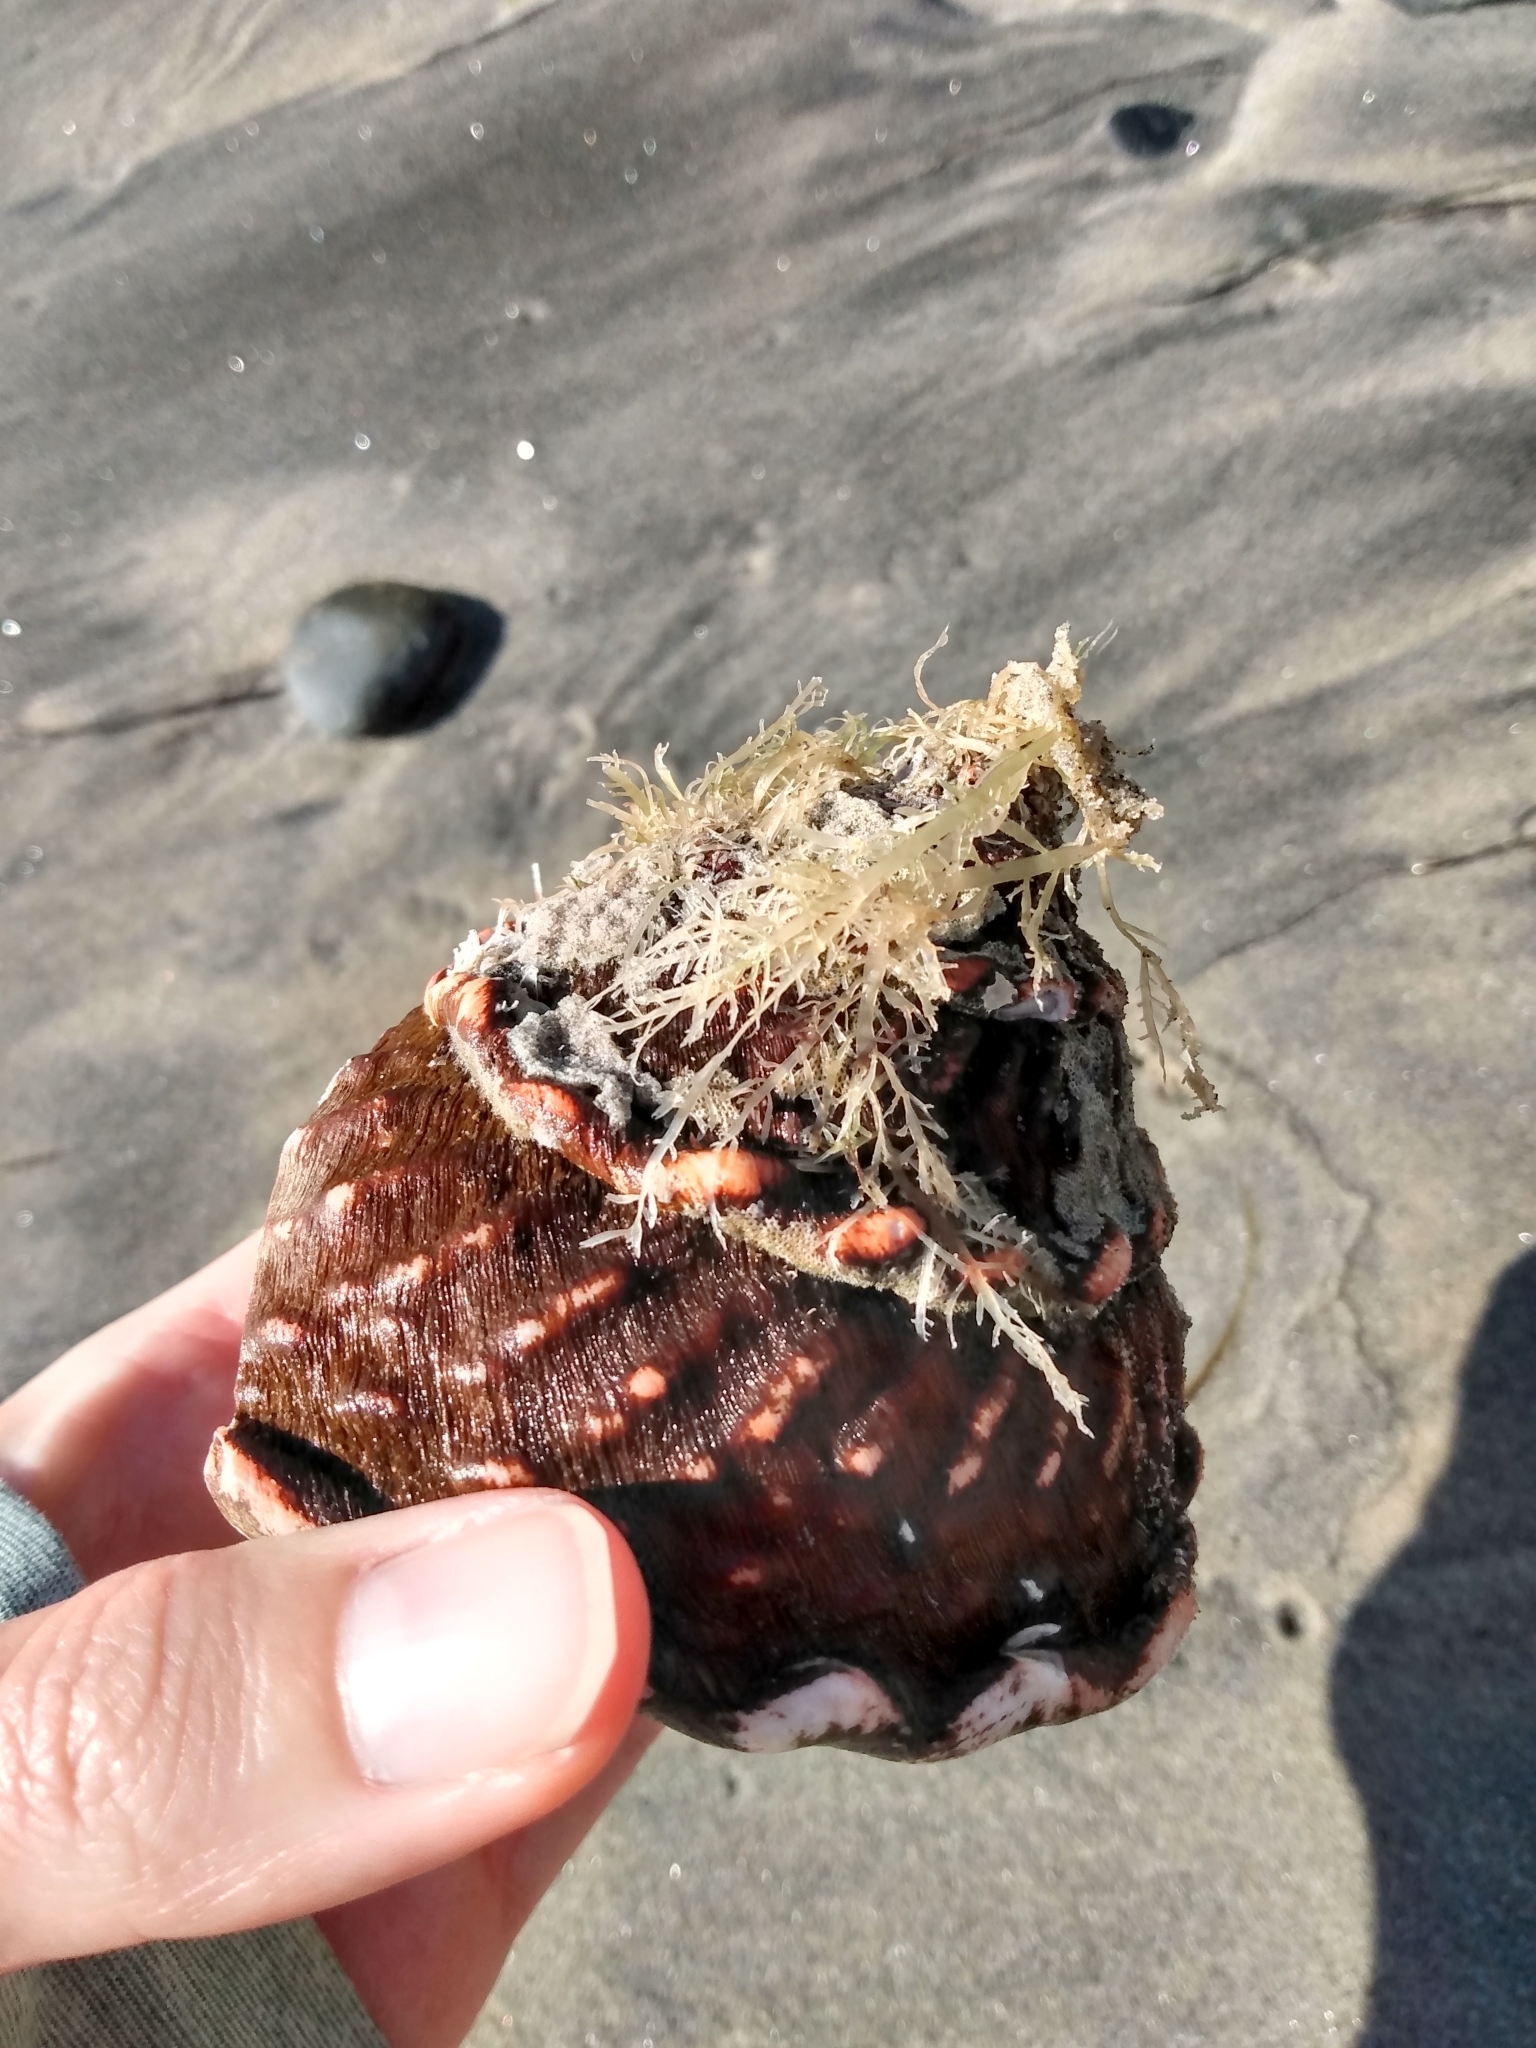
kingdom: Animalia
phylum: Mollusca
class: Gastropoda
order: Trochida
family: Turbinidae
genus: Megastraea
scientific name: Megastraea undosa
